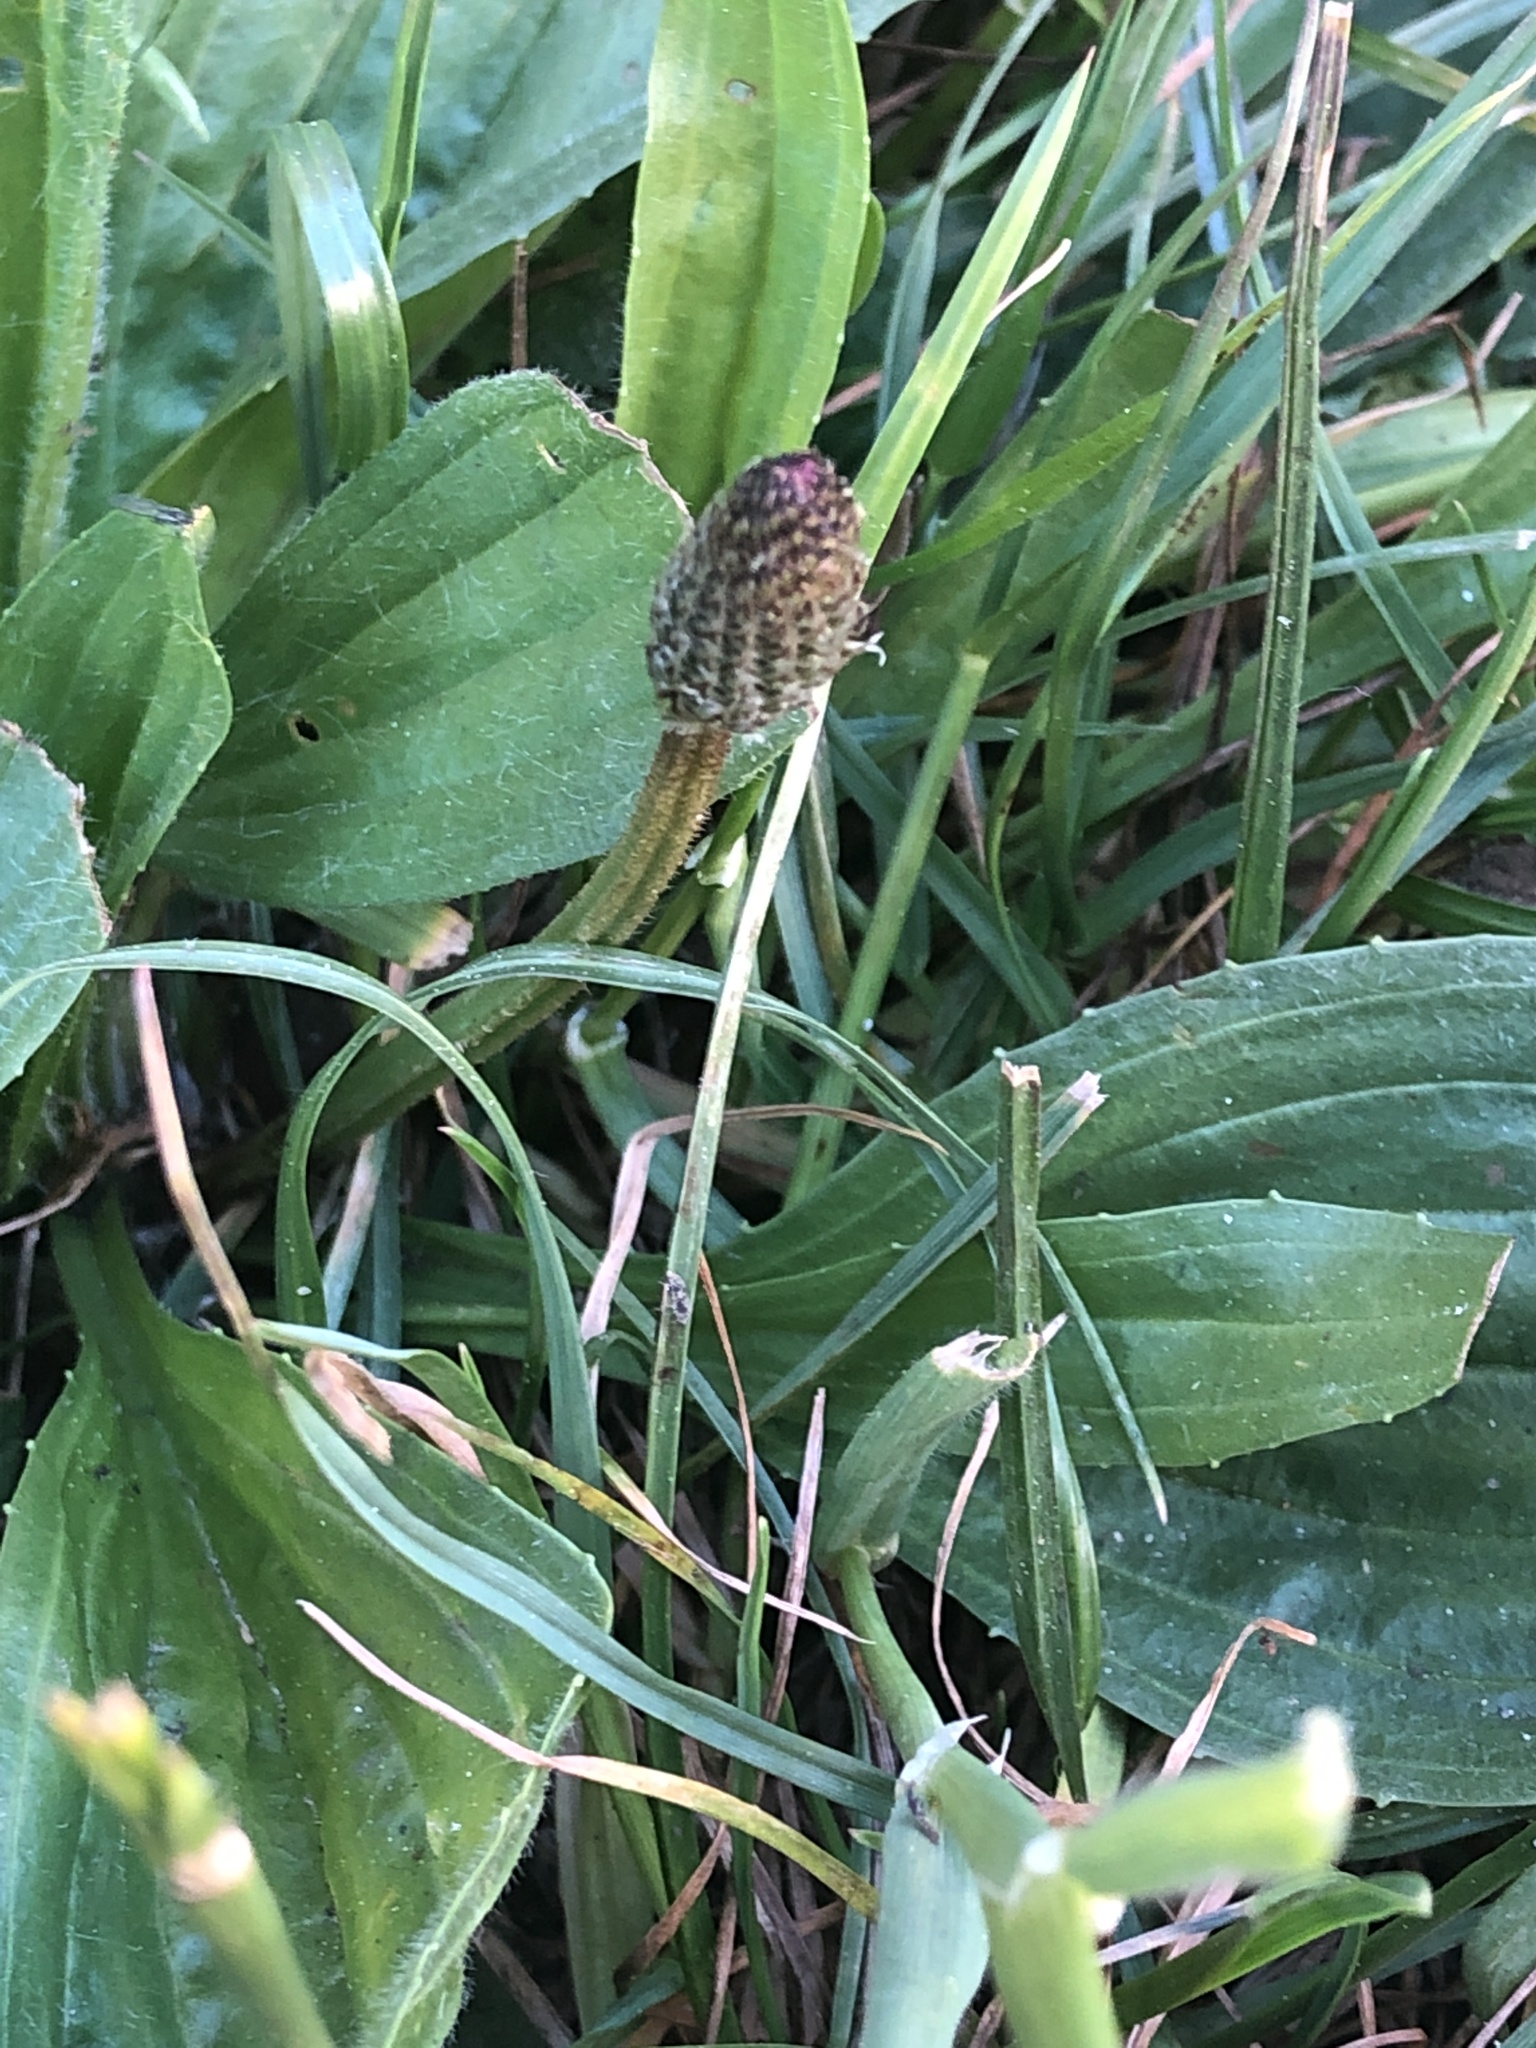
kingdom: Plantae
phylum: Tracheophyta
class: Magnoliopsida
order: Lamiales
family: Plantaginaceae
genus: Plantago
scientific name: Plantago lanceolata
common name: Ribwort plantain
